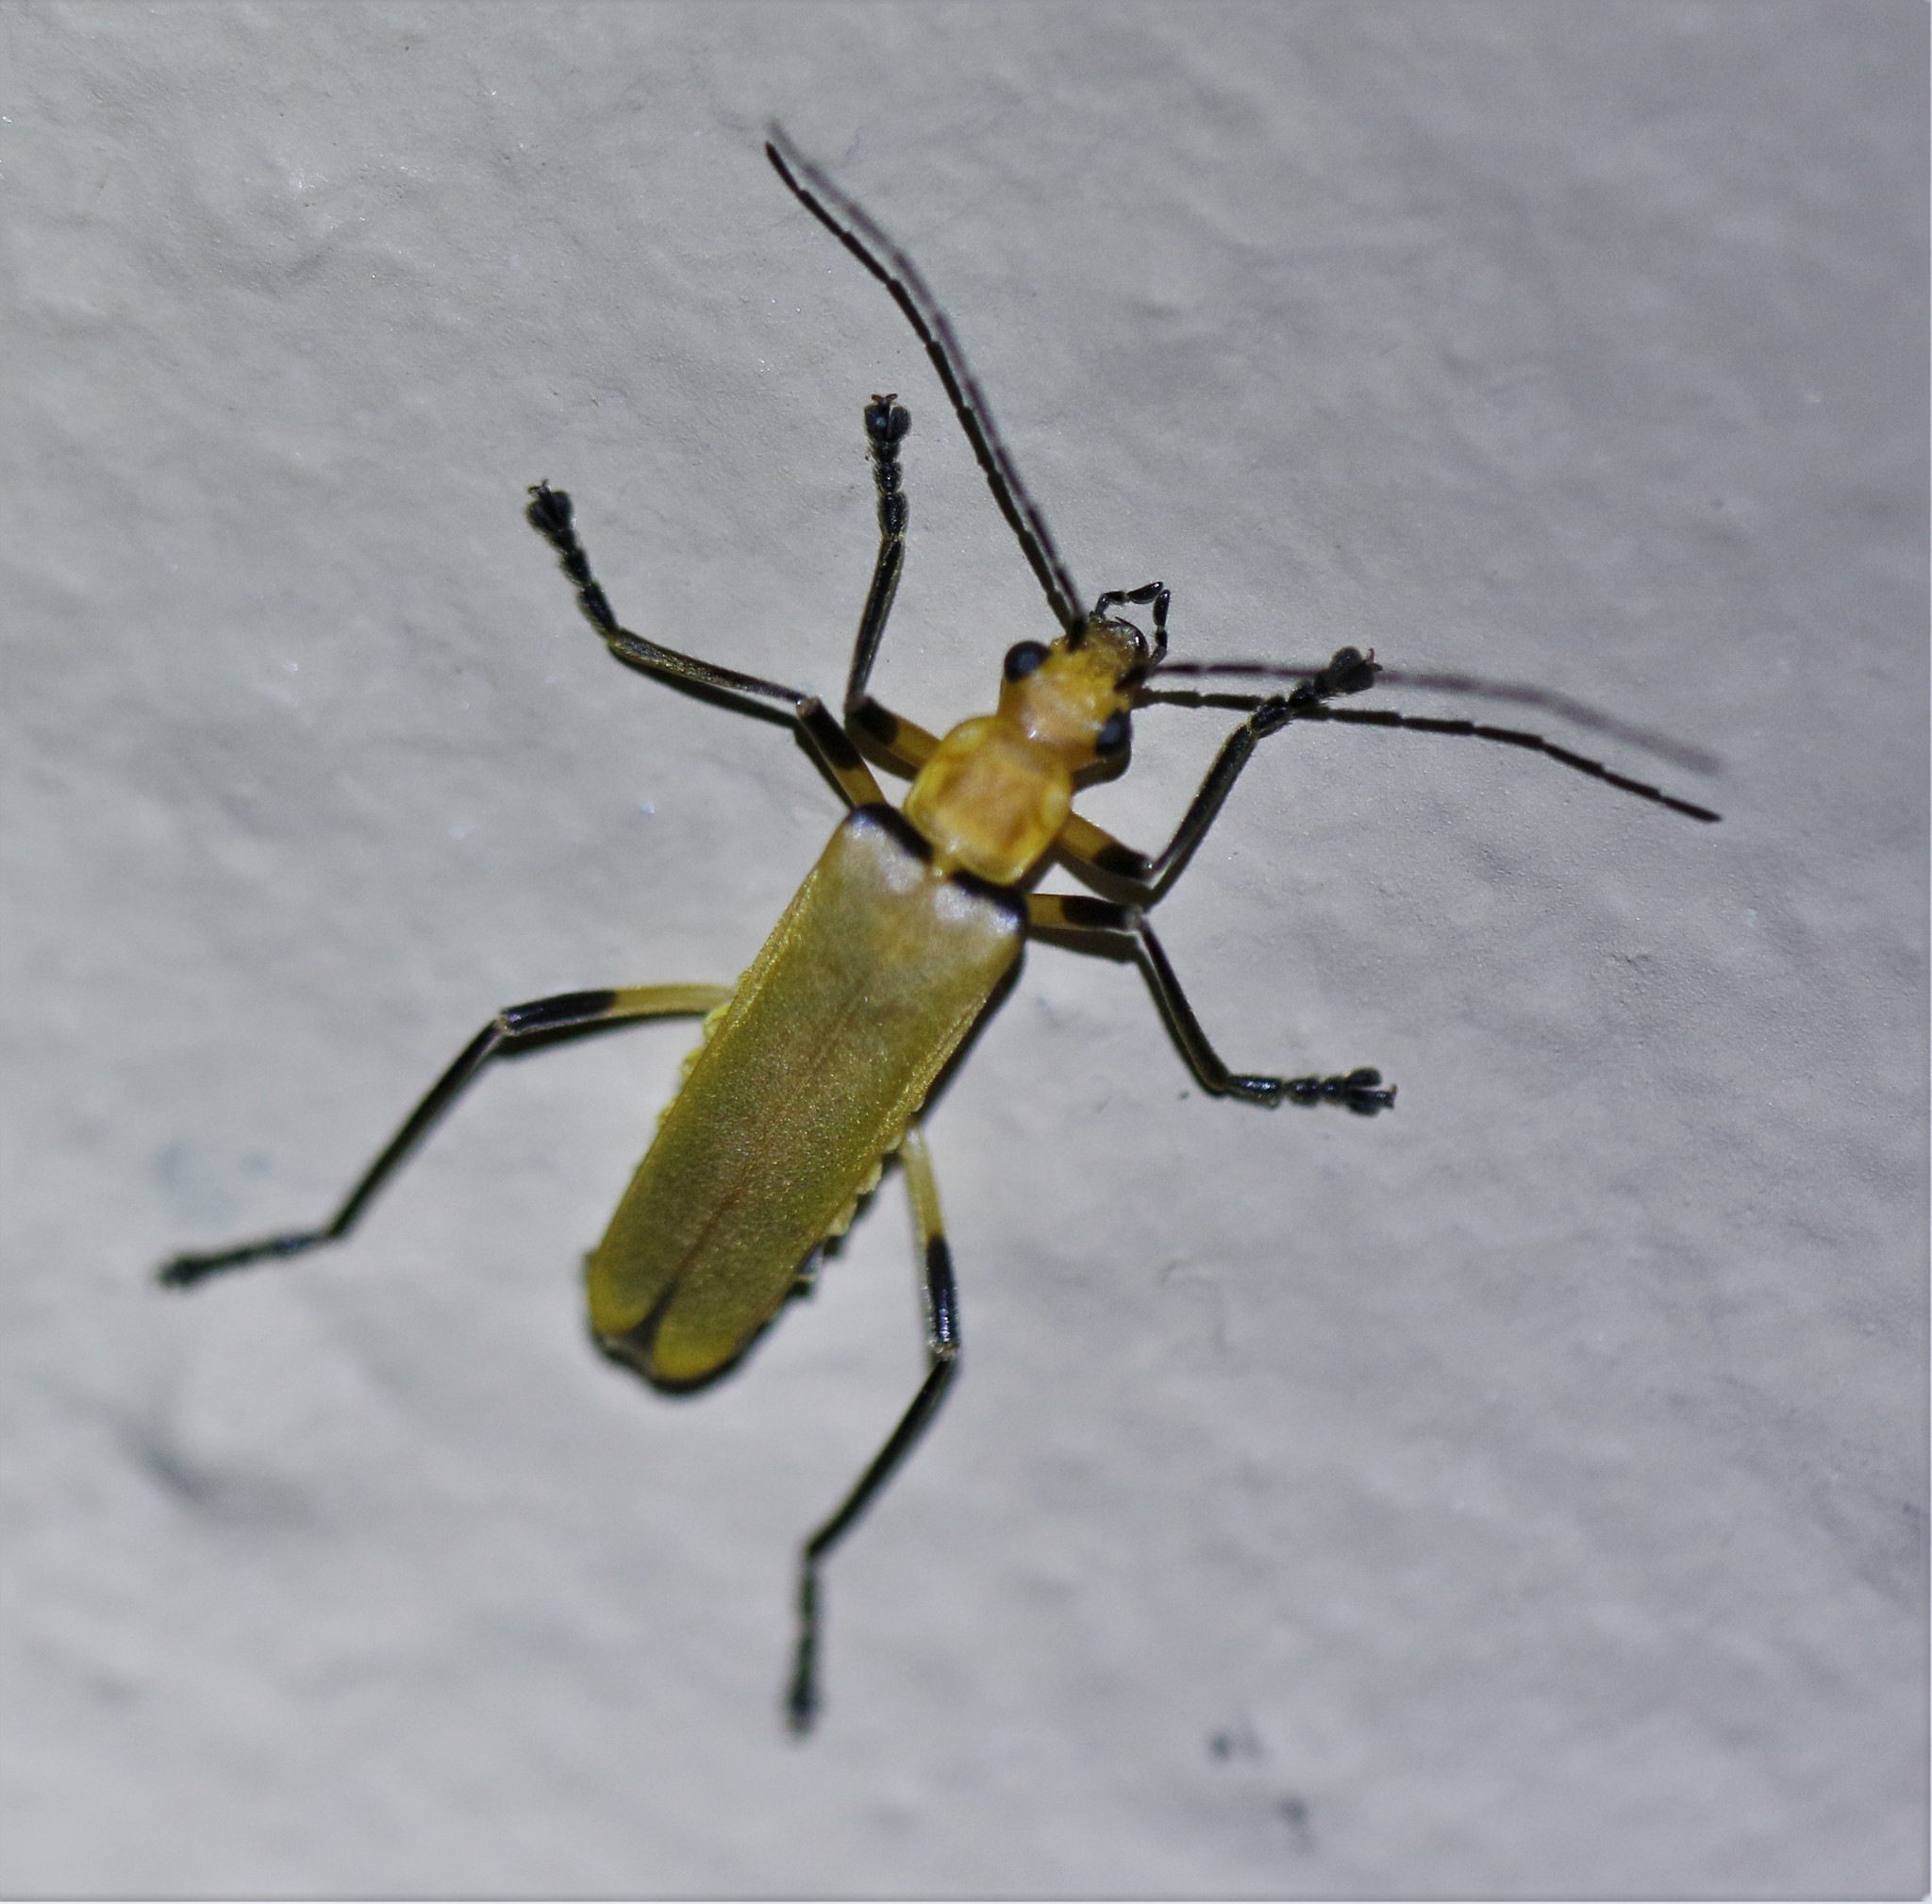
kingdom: Animalia
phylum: Arthropoda
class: Insecta
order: Coleoptera
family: Cantharidae
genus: Chauliognathus
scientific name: Chauliognathus
